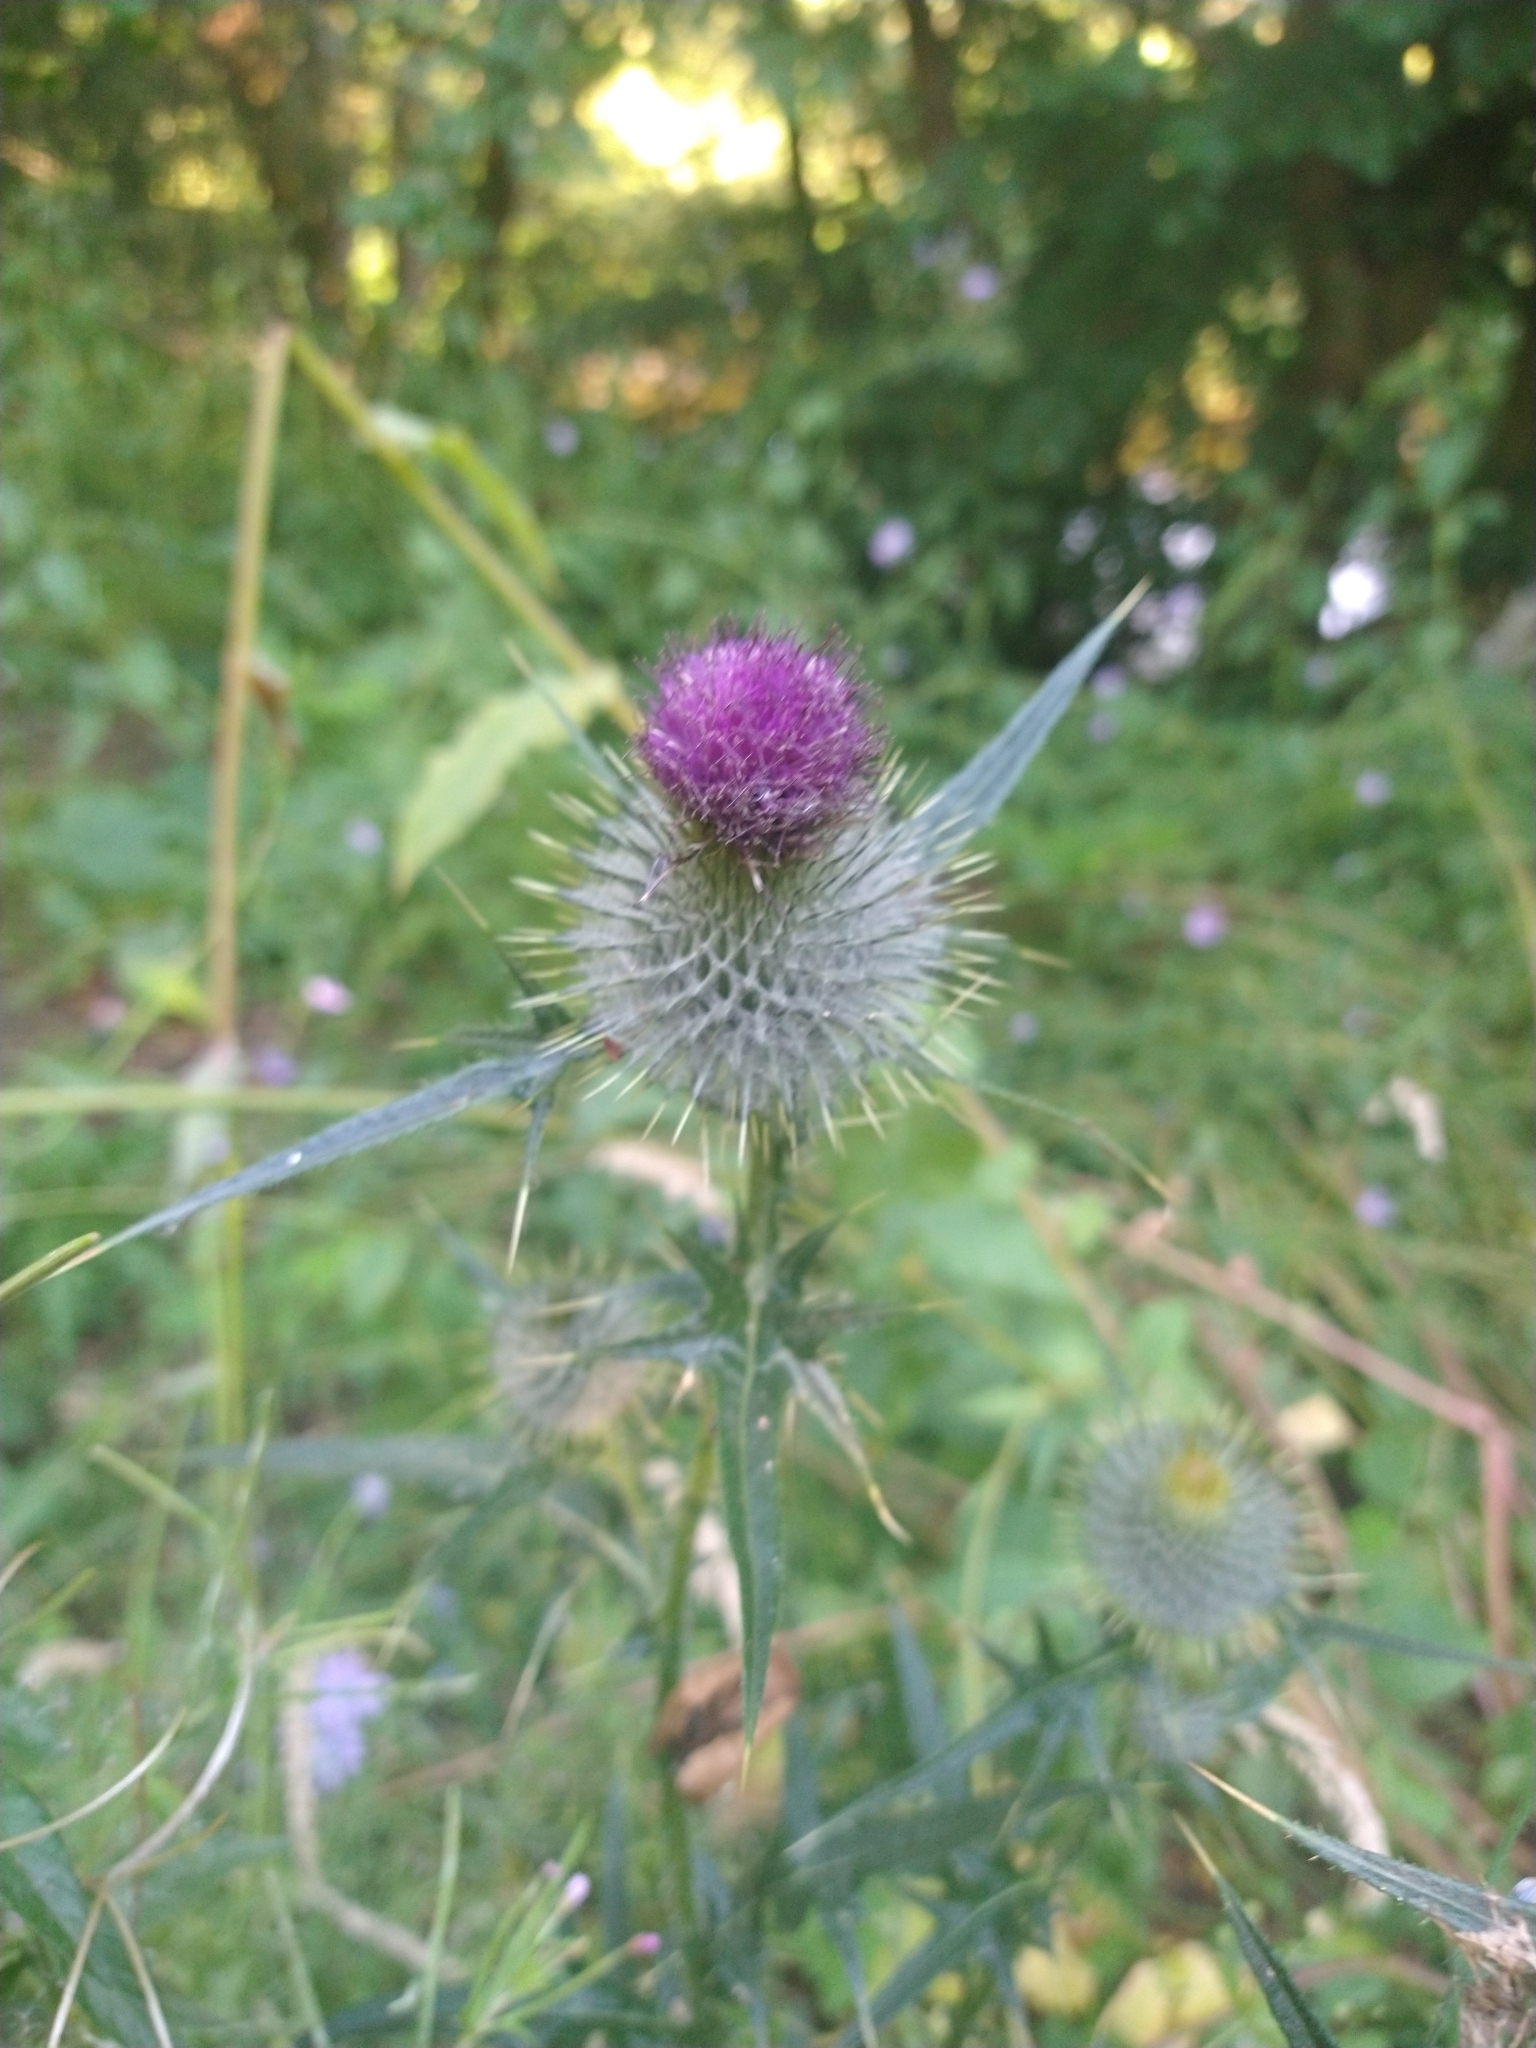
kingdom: Plantae
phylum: Tracheophyta
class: Magnoliopsida
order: Asterales
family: Asteraceae
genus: Cirsium
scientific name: Cirsium vulgare
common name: Bull thistle
